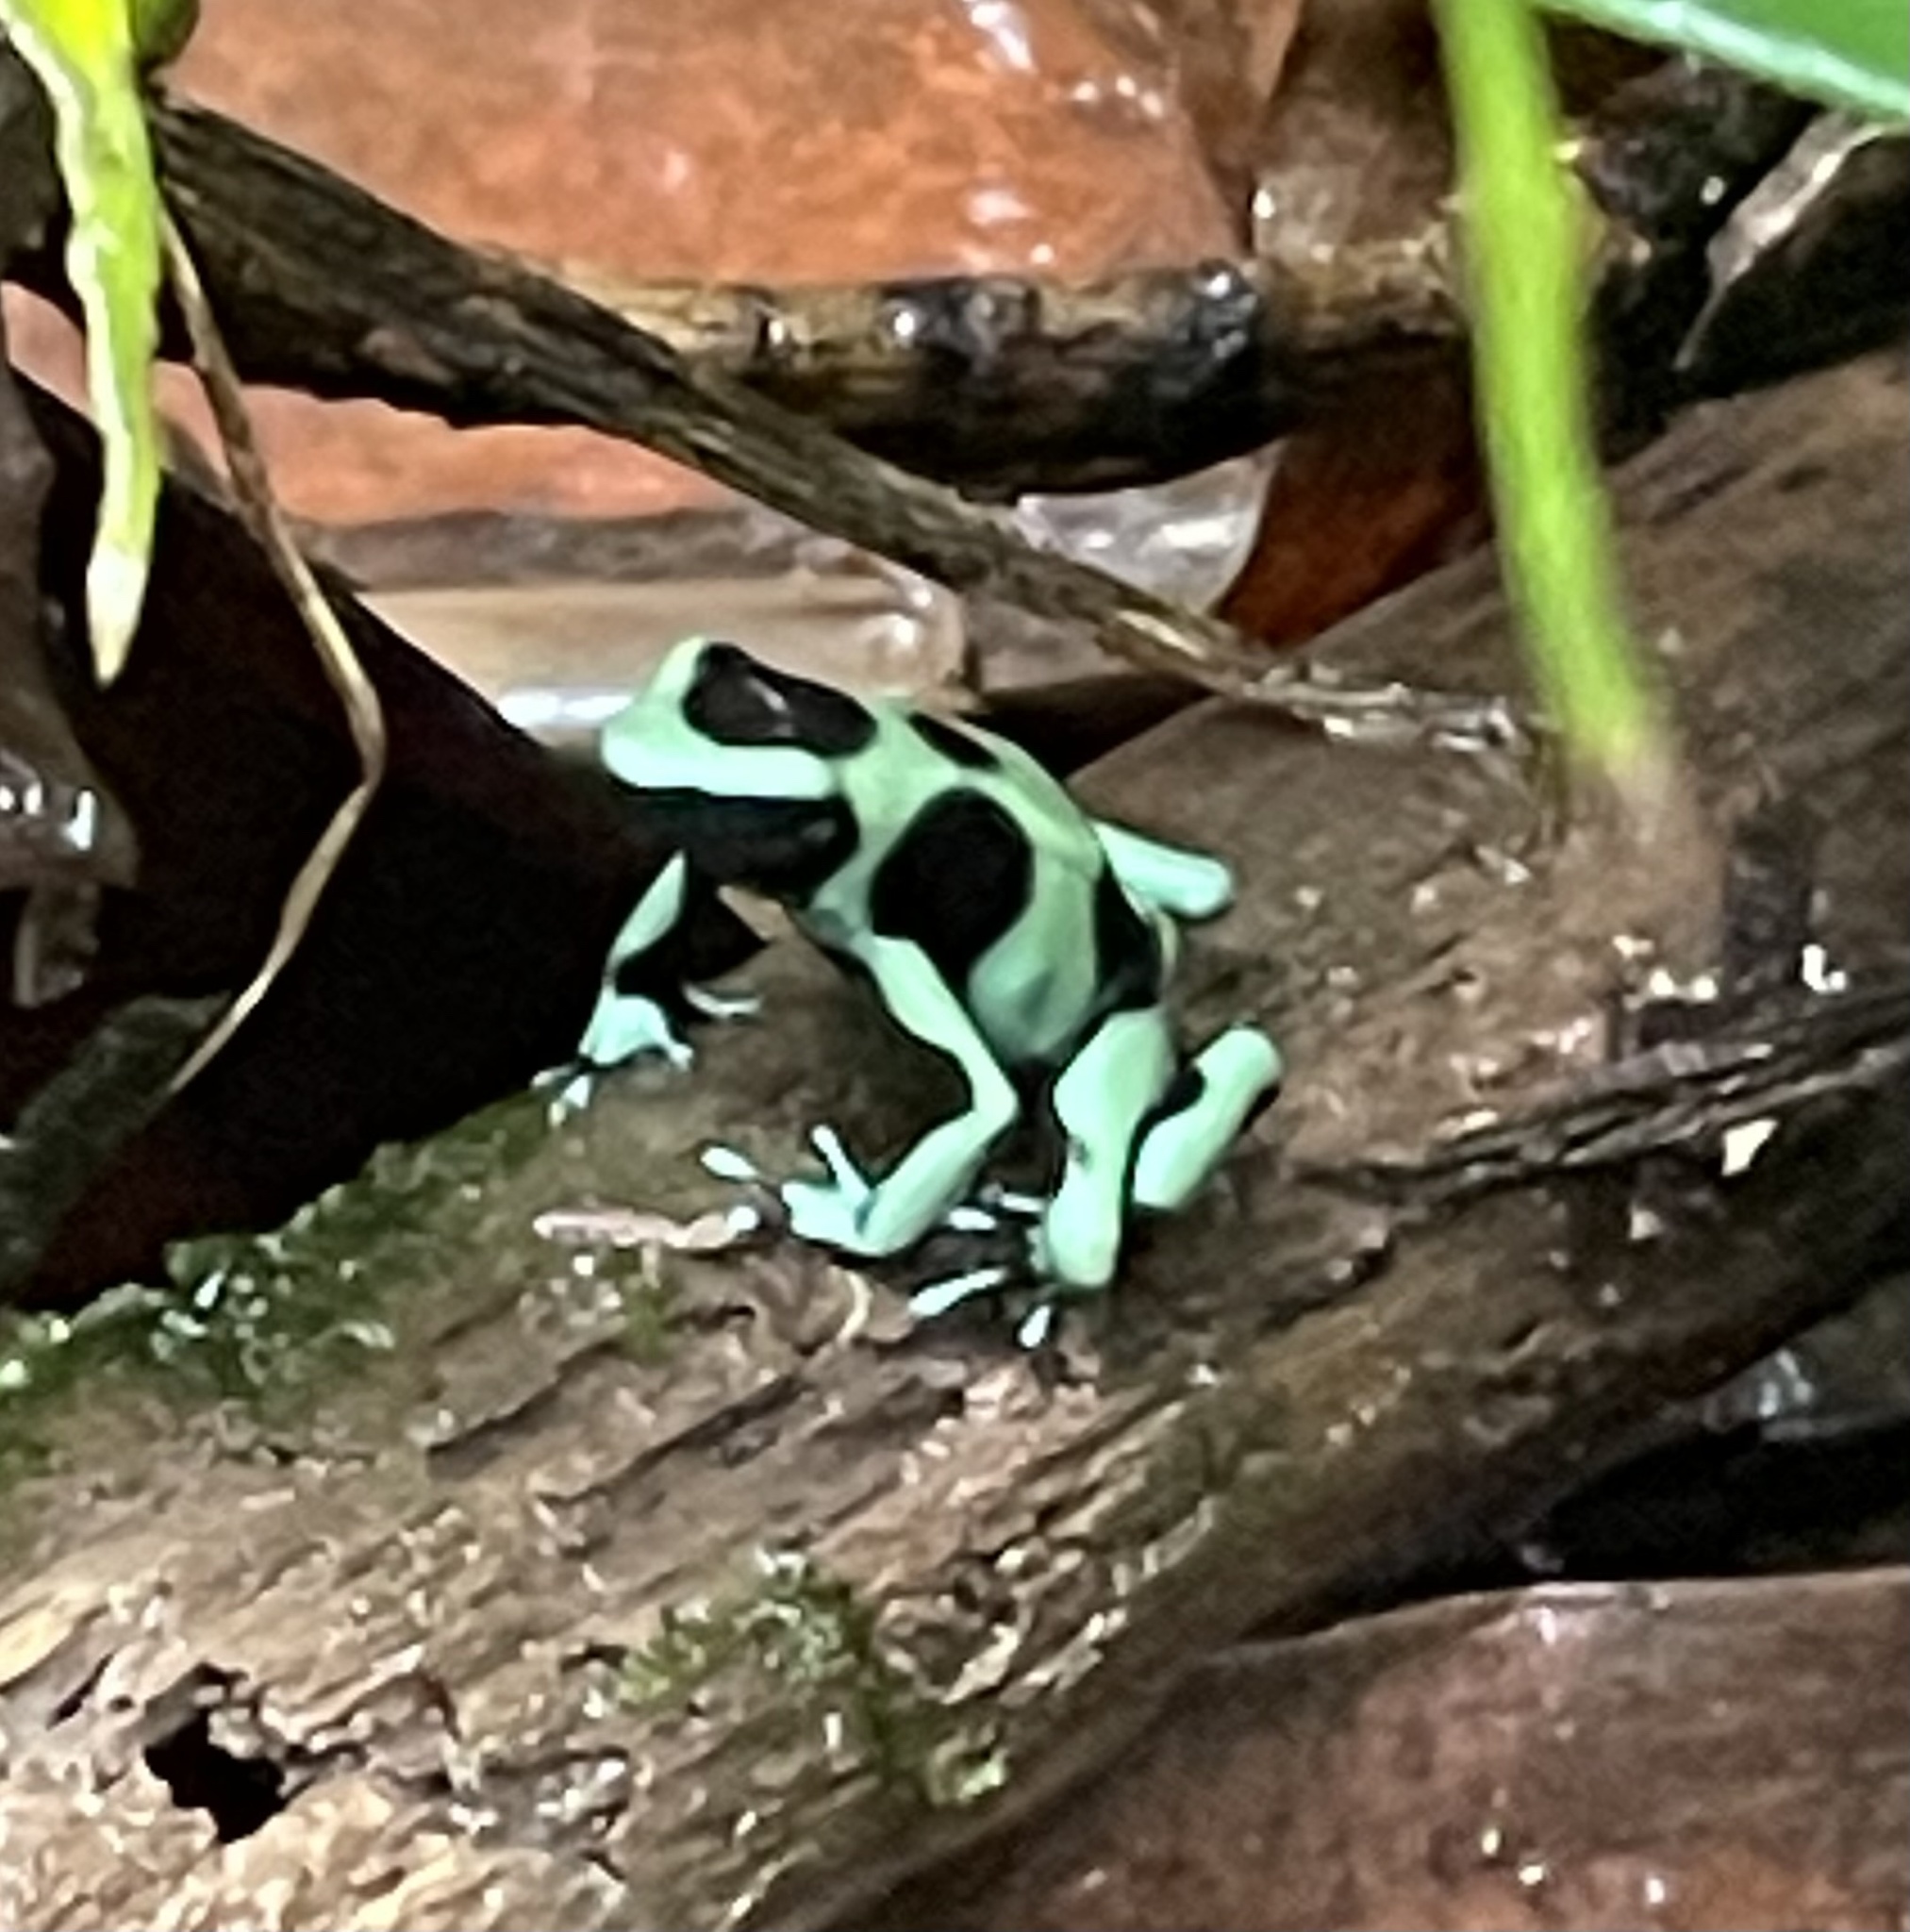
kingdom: Animalia
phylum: Chordata
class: Amphibia
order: Anura
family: Dendrobatidae
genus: Dendrobates
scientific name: Dendrobates auratus
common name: Green and black poison dart frog
